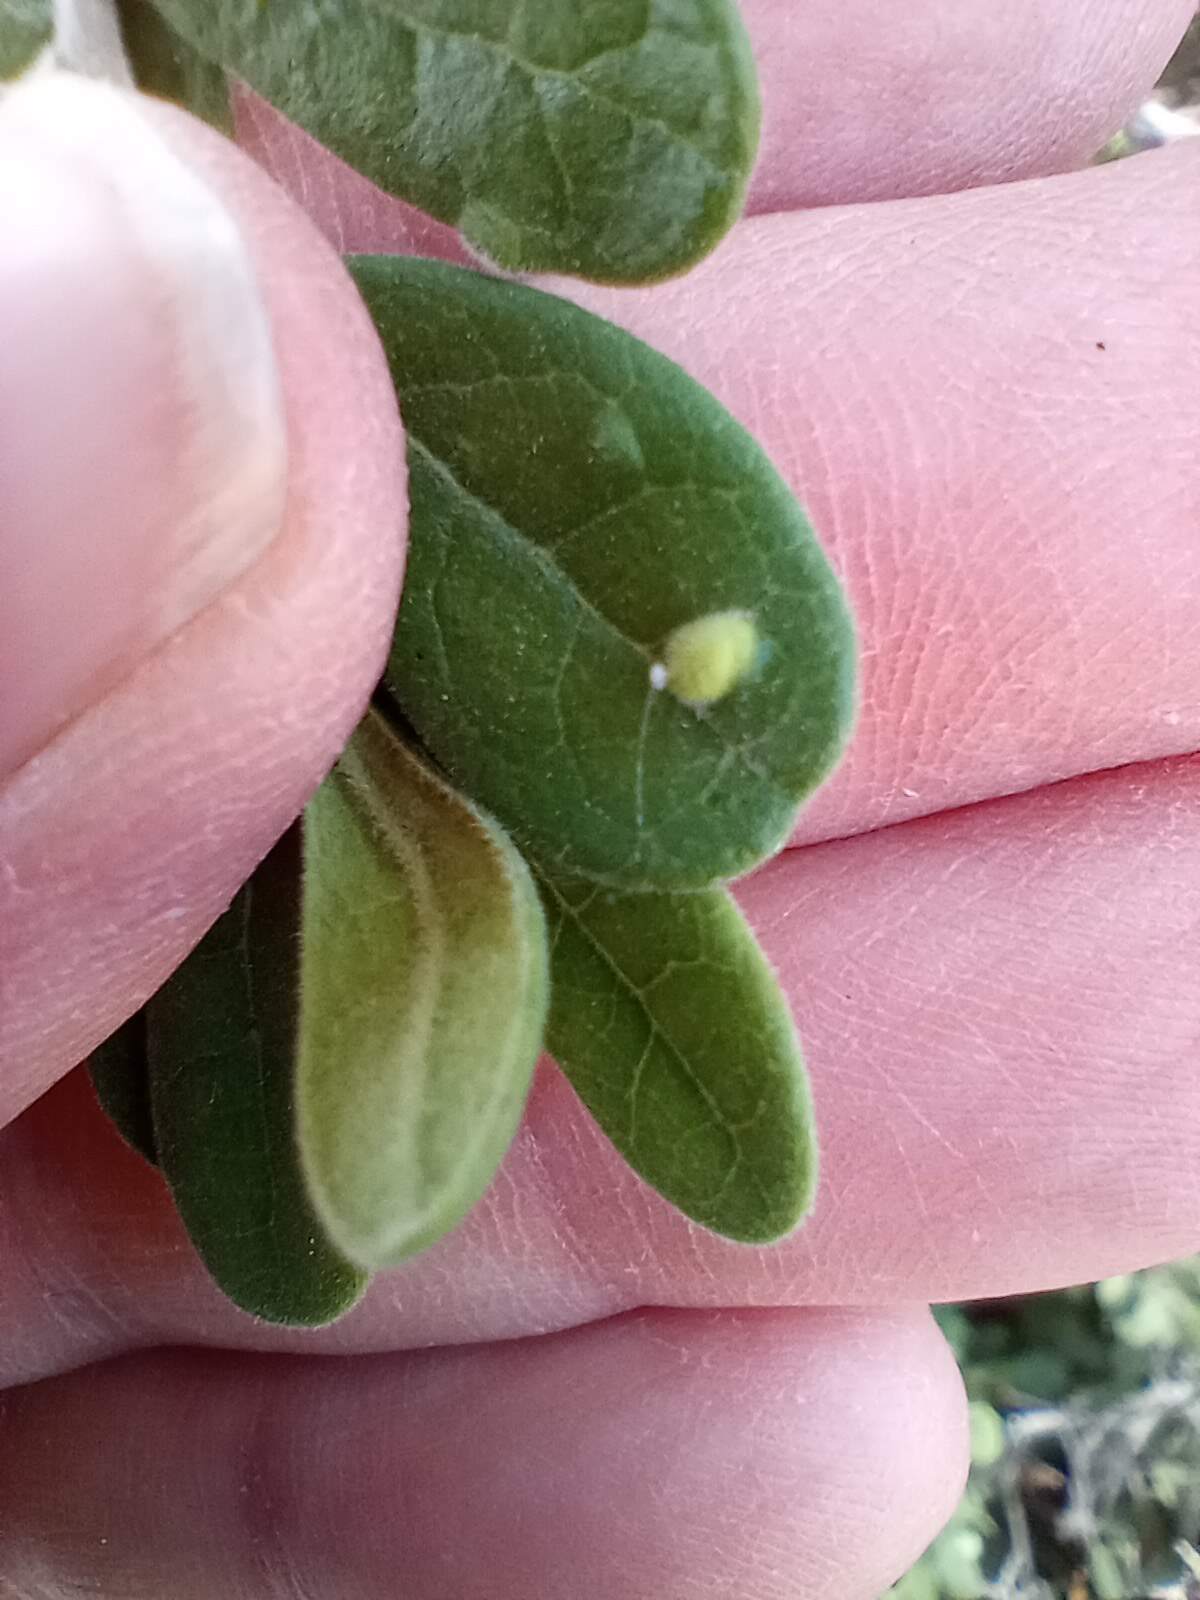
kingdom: Plantae
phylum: Tracheophyta
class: Magnoliopsida
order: Ericales
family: Ebenaceae
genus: Diospyros
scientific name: Diospyros texana
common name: Texas persimmon
